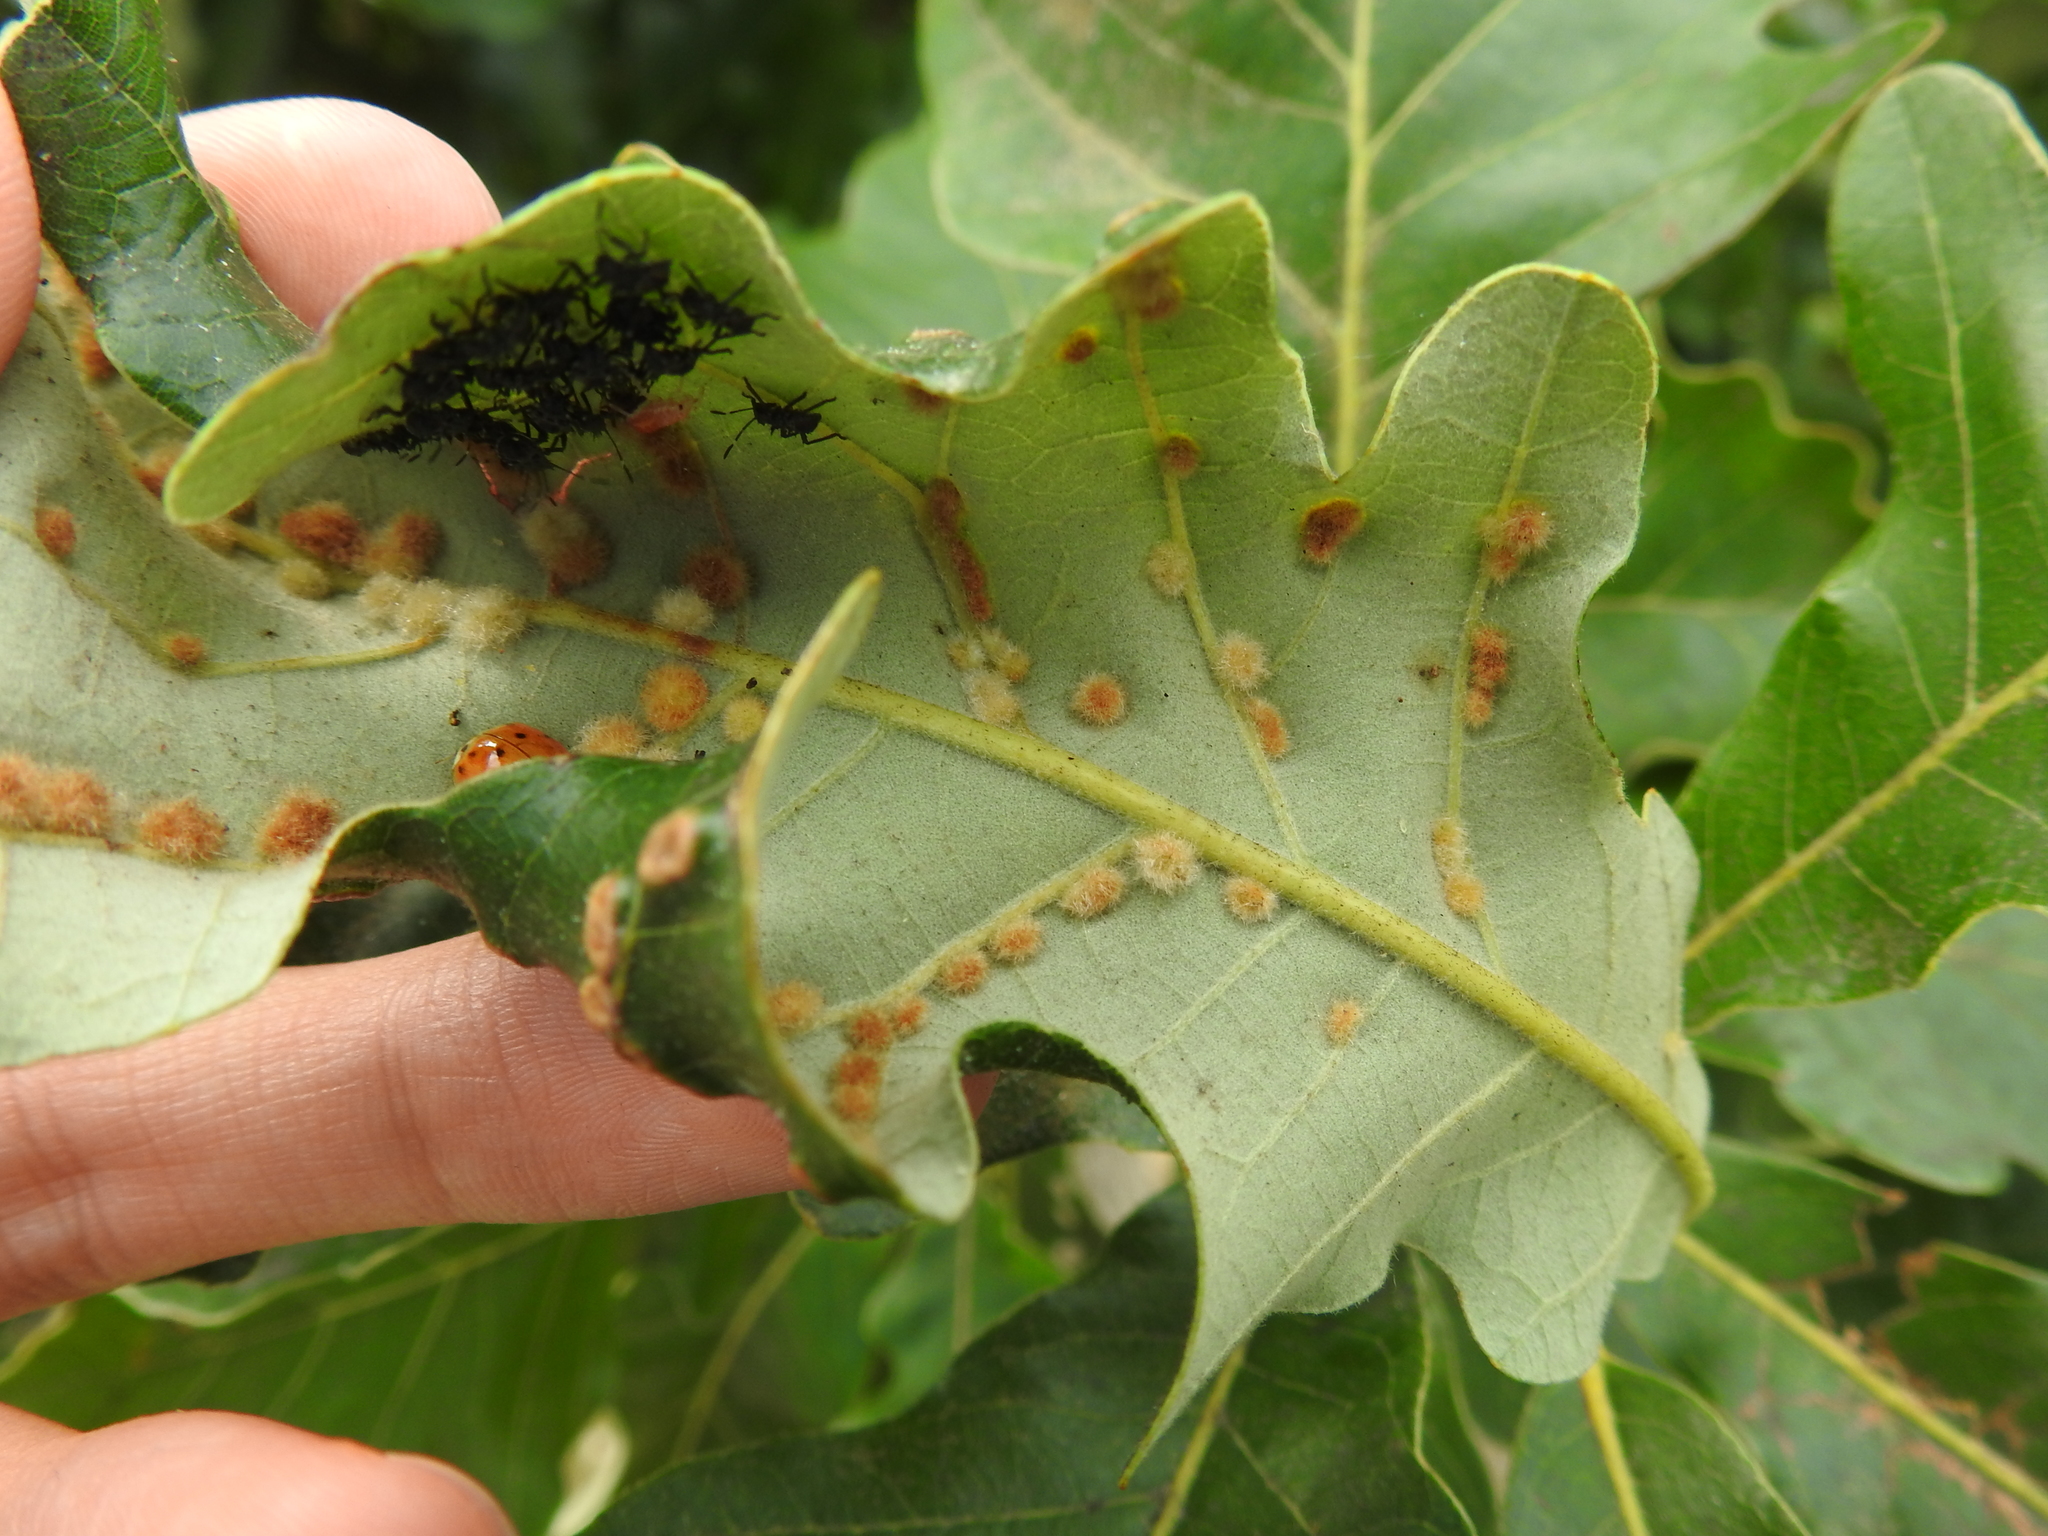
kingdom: Animalia
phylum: Arthropoda
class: Insecta
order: Hymenoptera
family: Cynipidae
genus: Neuroterus
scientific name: Neuroterus quercusverrucarum
